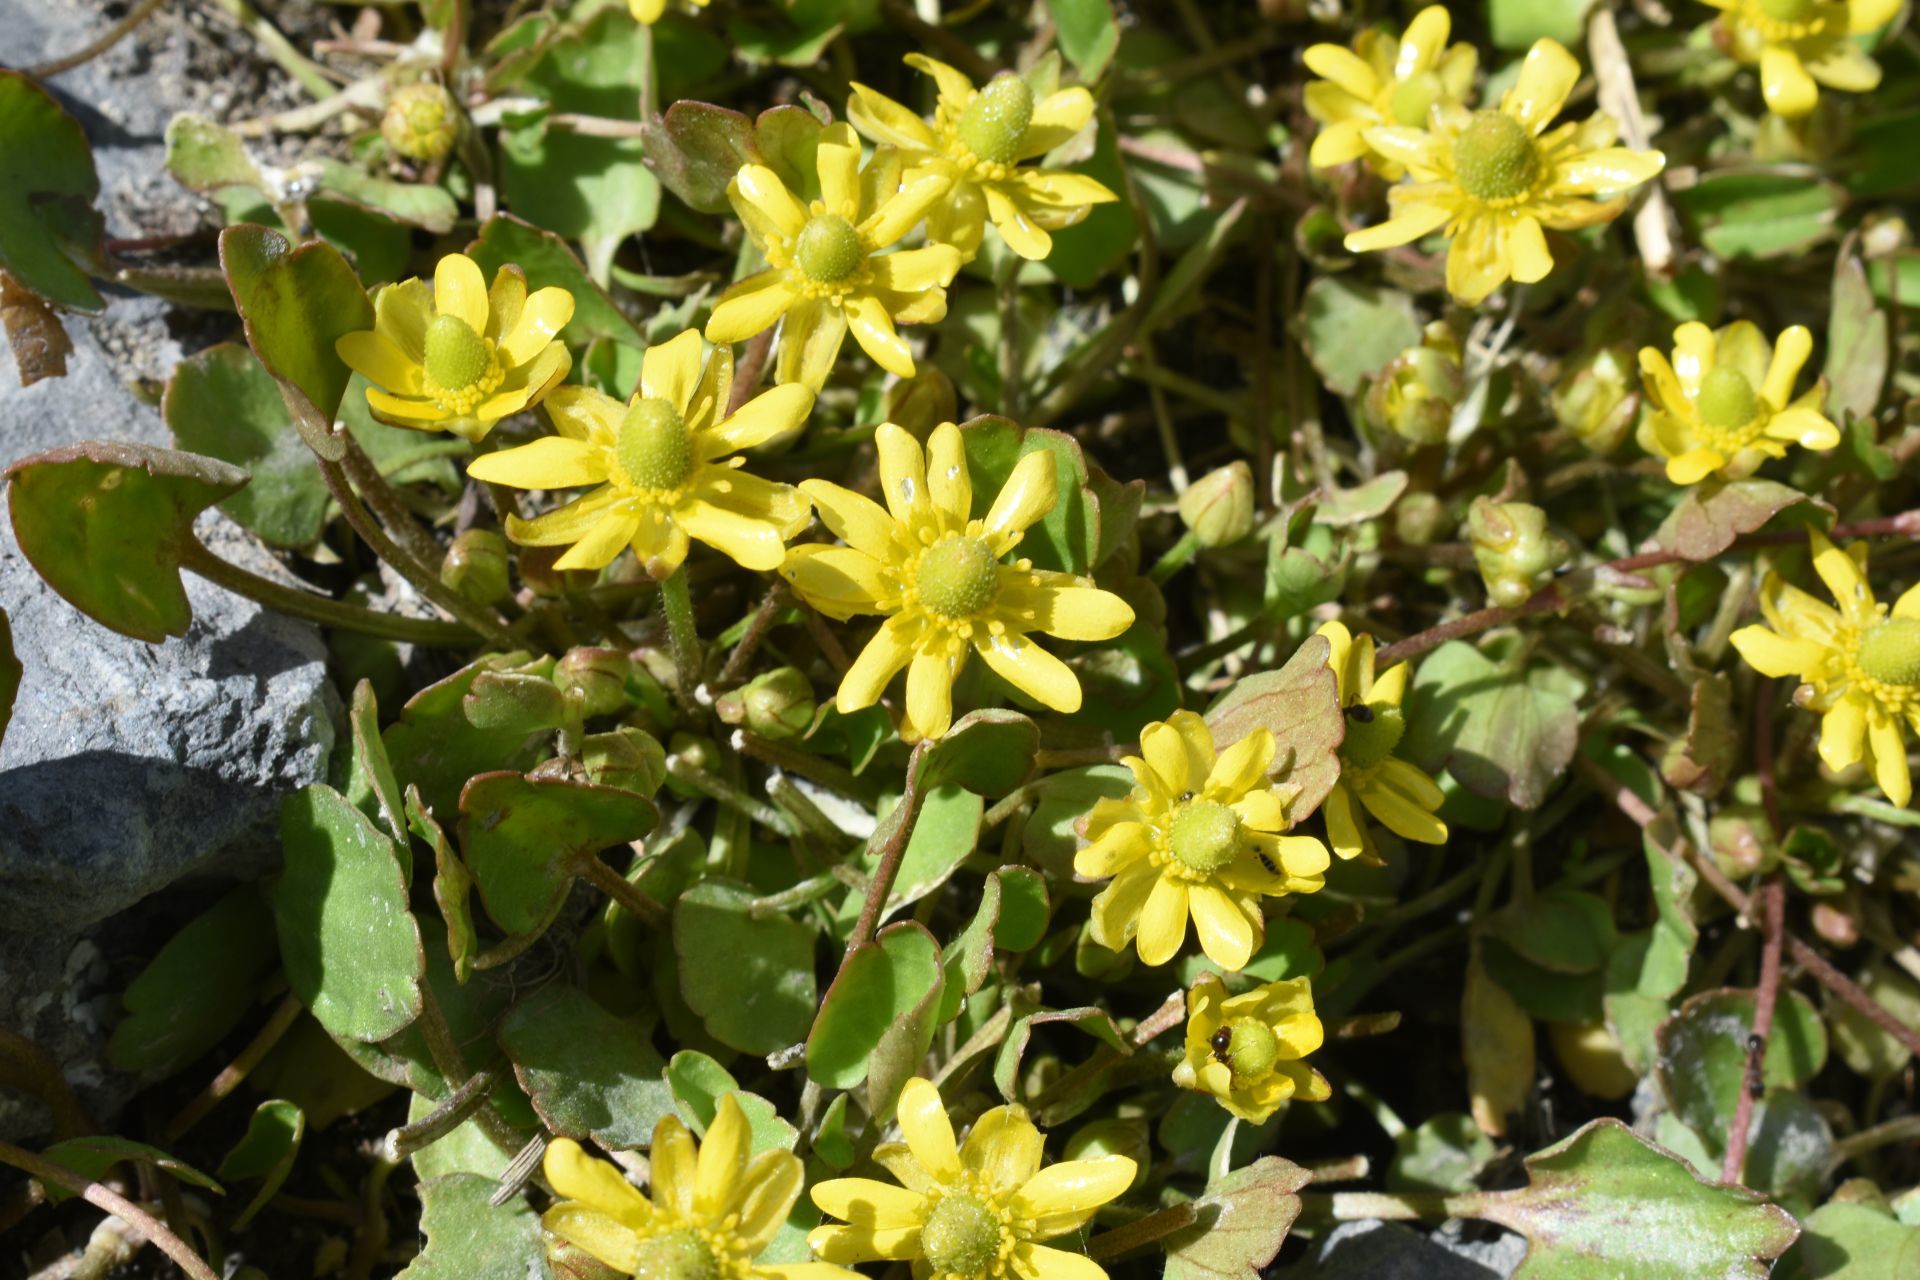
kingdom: Plantae
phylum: Tracheophyta
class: Magnoliopsida
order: Ranunculales
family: Ranunculaceae
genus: Halerpestes
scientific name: Halerpestes cymbalaria
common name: Seaside crowfoot
